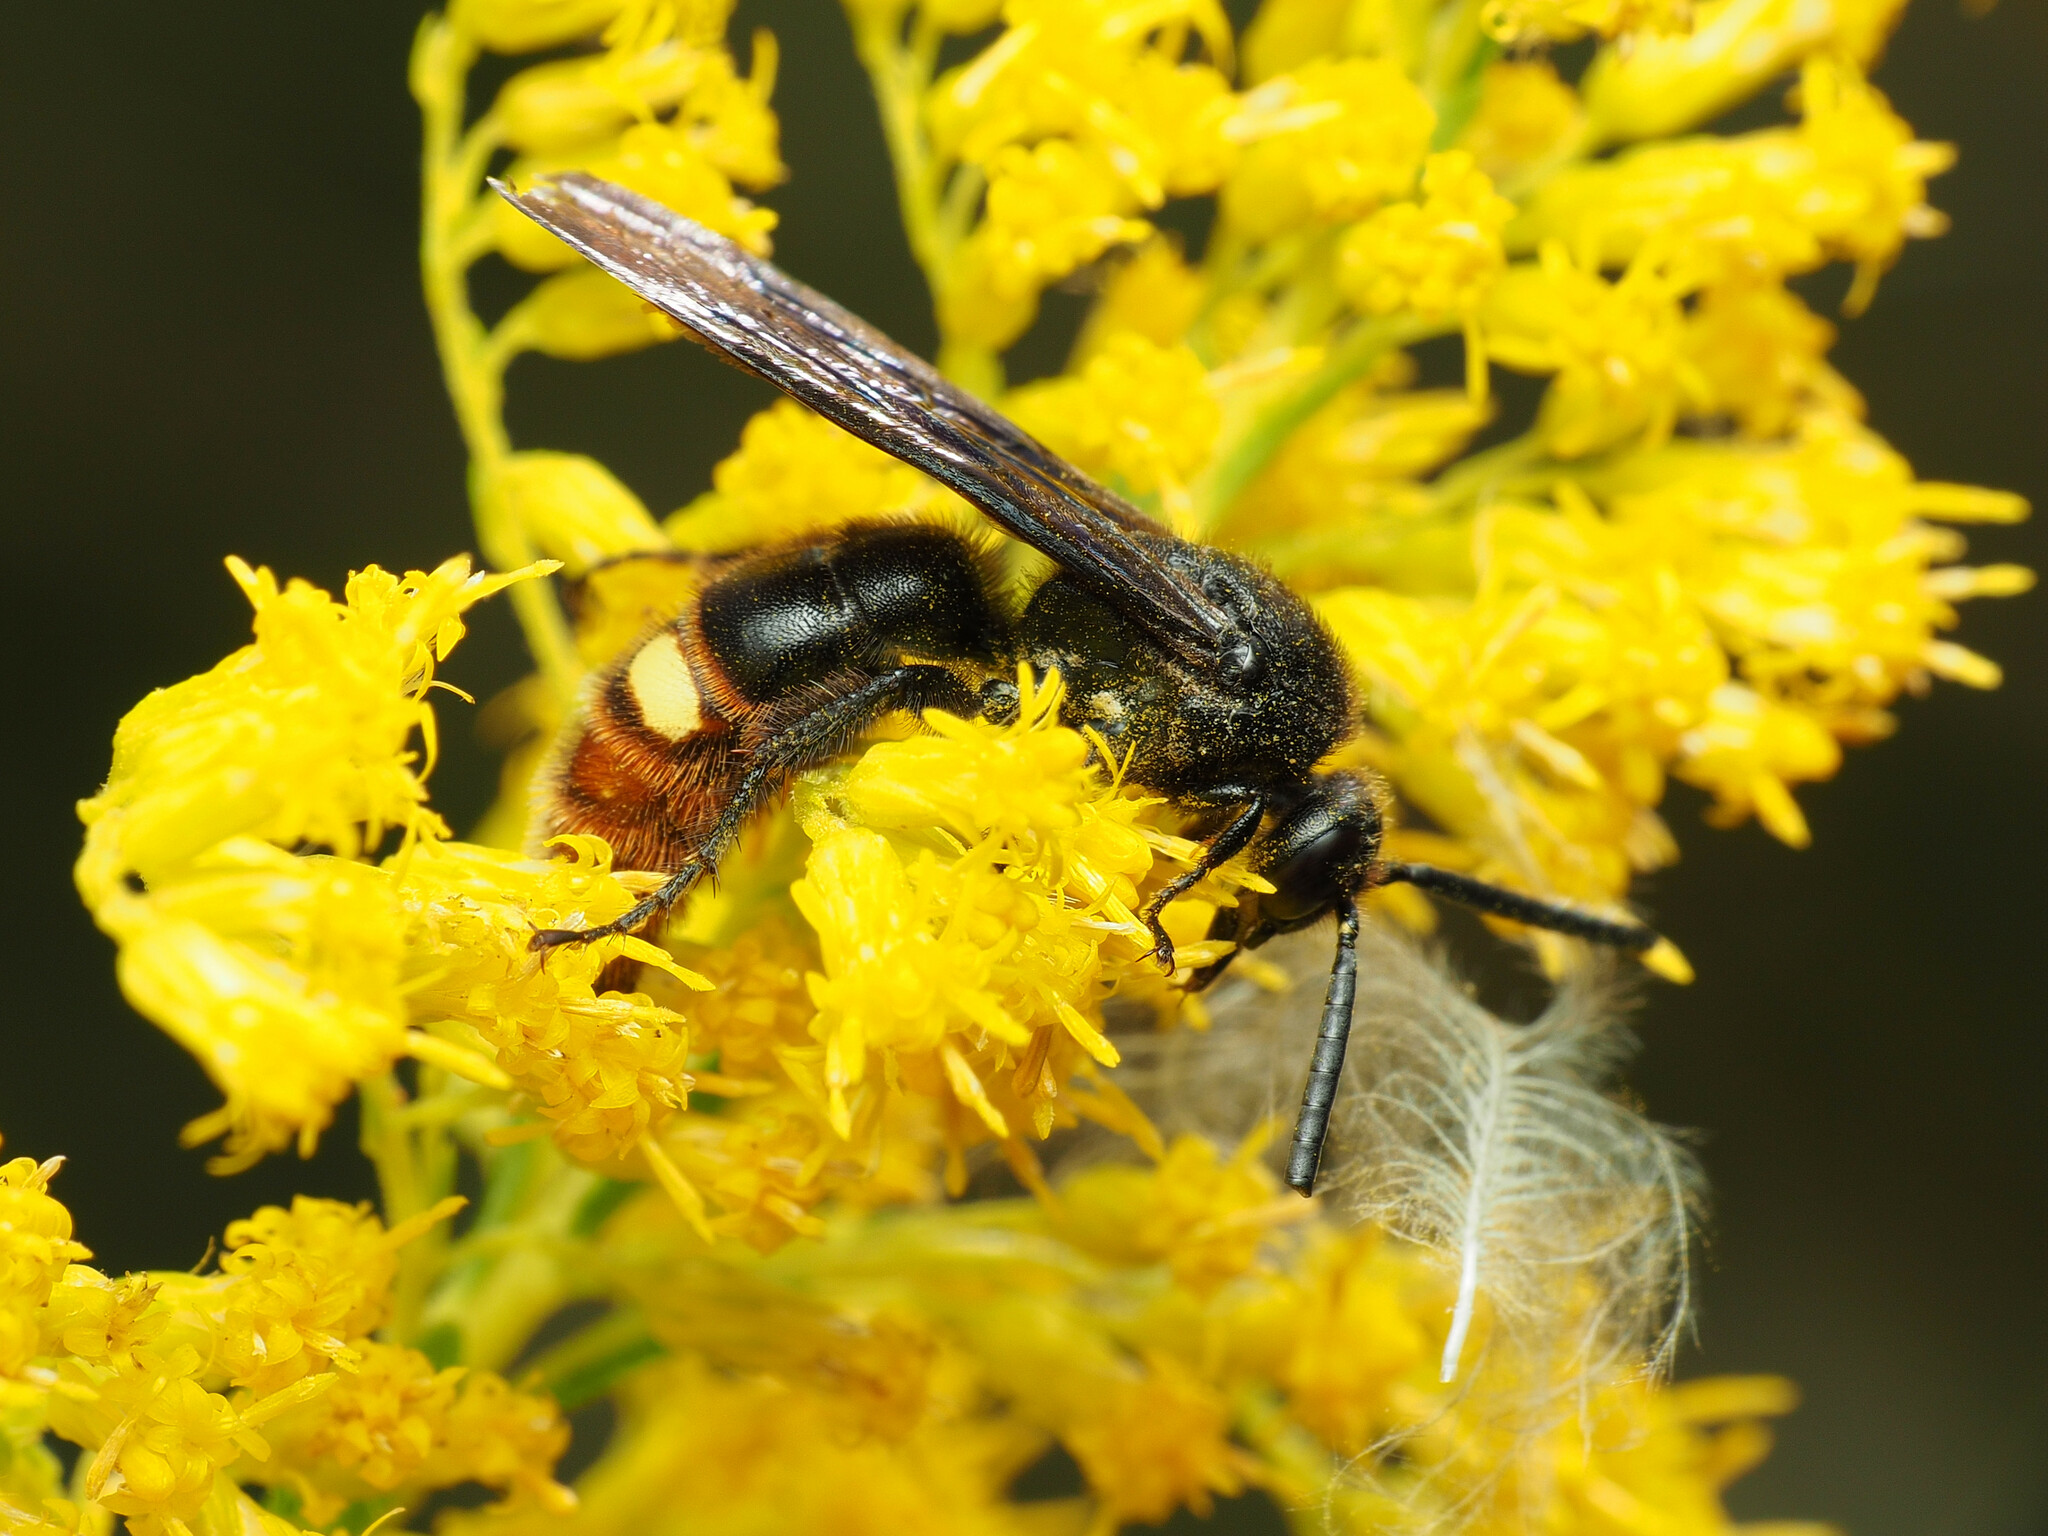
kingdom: Animalia
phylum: Arthropoda
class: Insecta
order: Hymenoptera
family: Scoliidae
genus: Scolia
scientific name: Scolia dubia
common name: Blue-winged scoliid wasp
